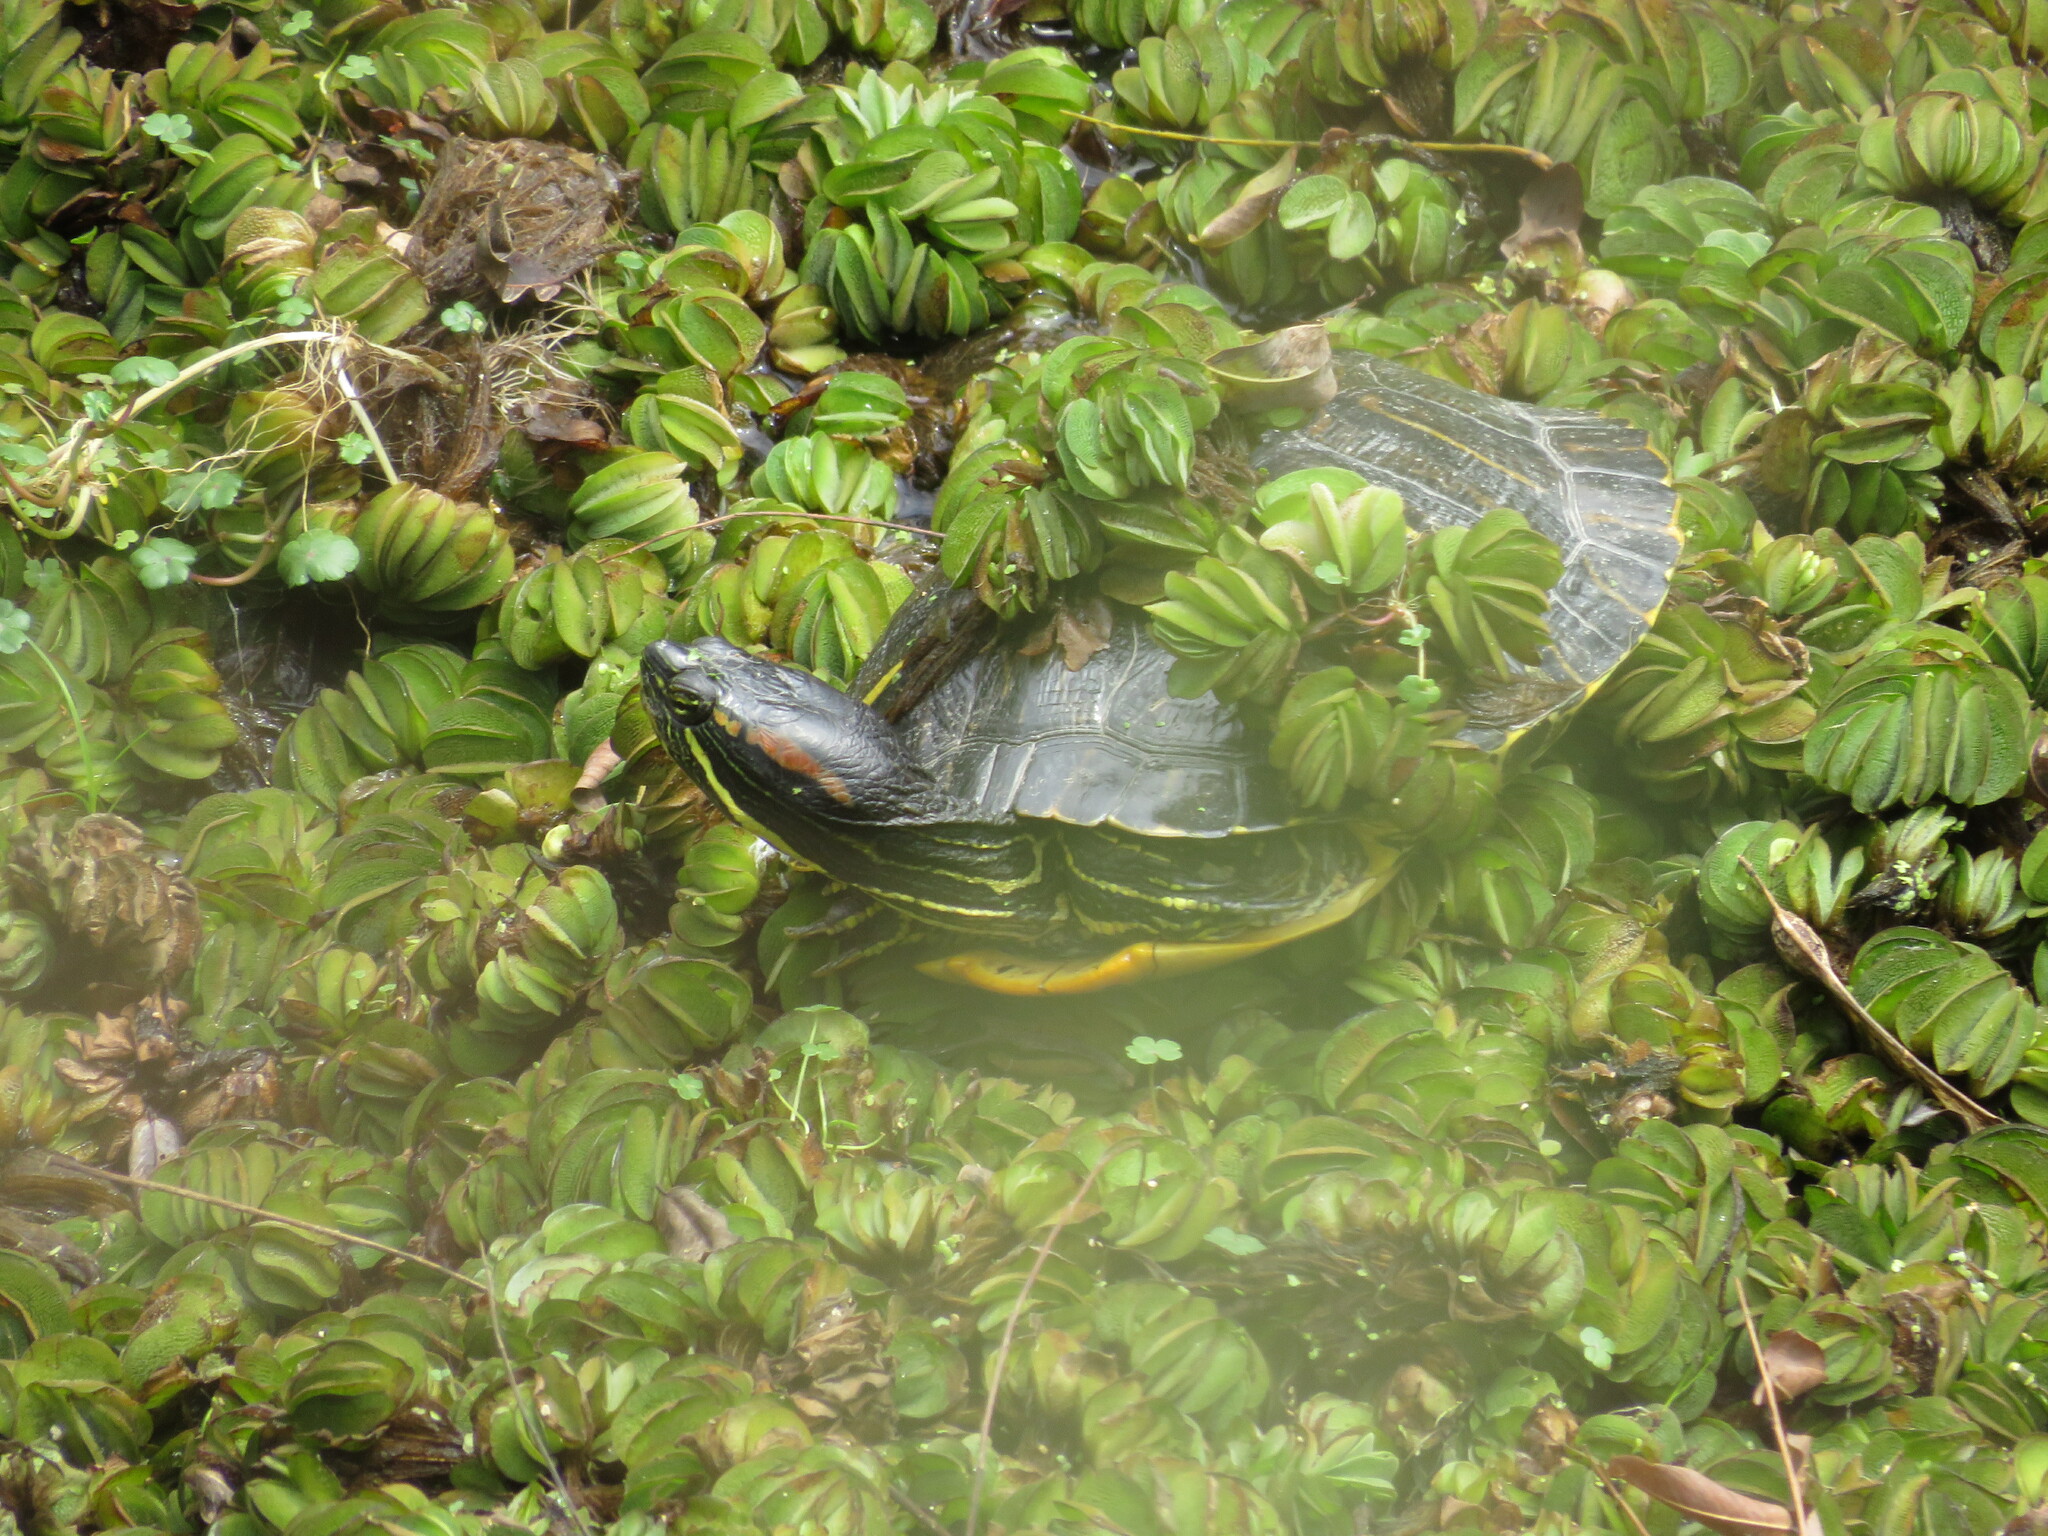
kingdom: Animalia
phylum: Chordata
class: Testudines
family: Emydidae
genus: Trachemys
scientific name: Trachemys scripta
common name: Slider
